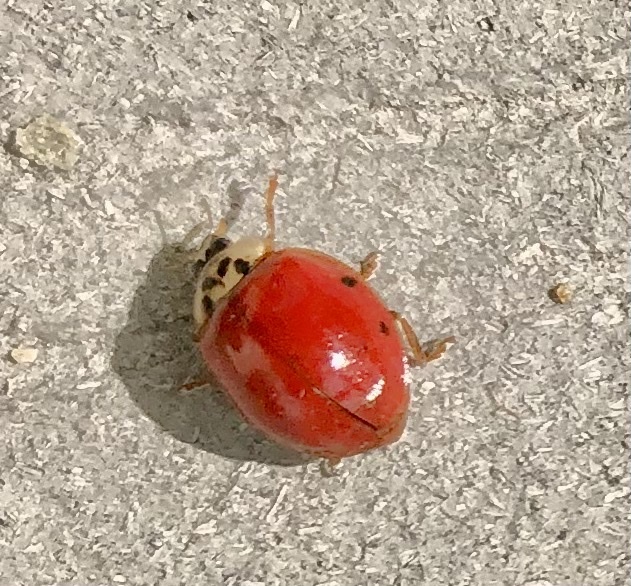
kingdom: Animalia
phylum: Arthropoda
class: Insecta
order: Coleoptera
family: Coccinellidae
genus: Harmonia
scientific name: Harmonia axyridis
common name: Harlequin ladybird
